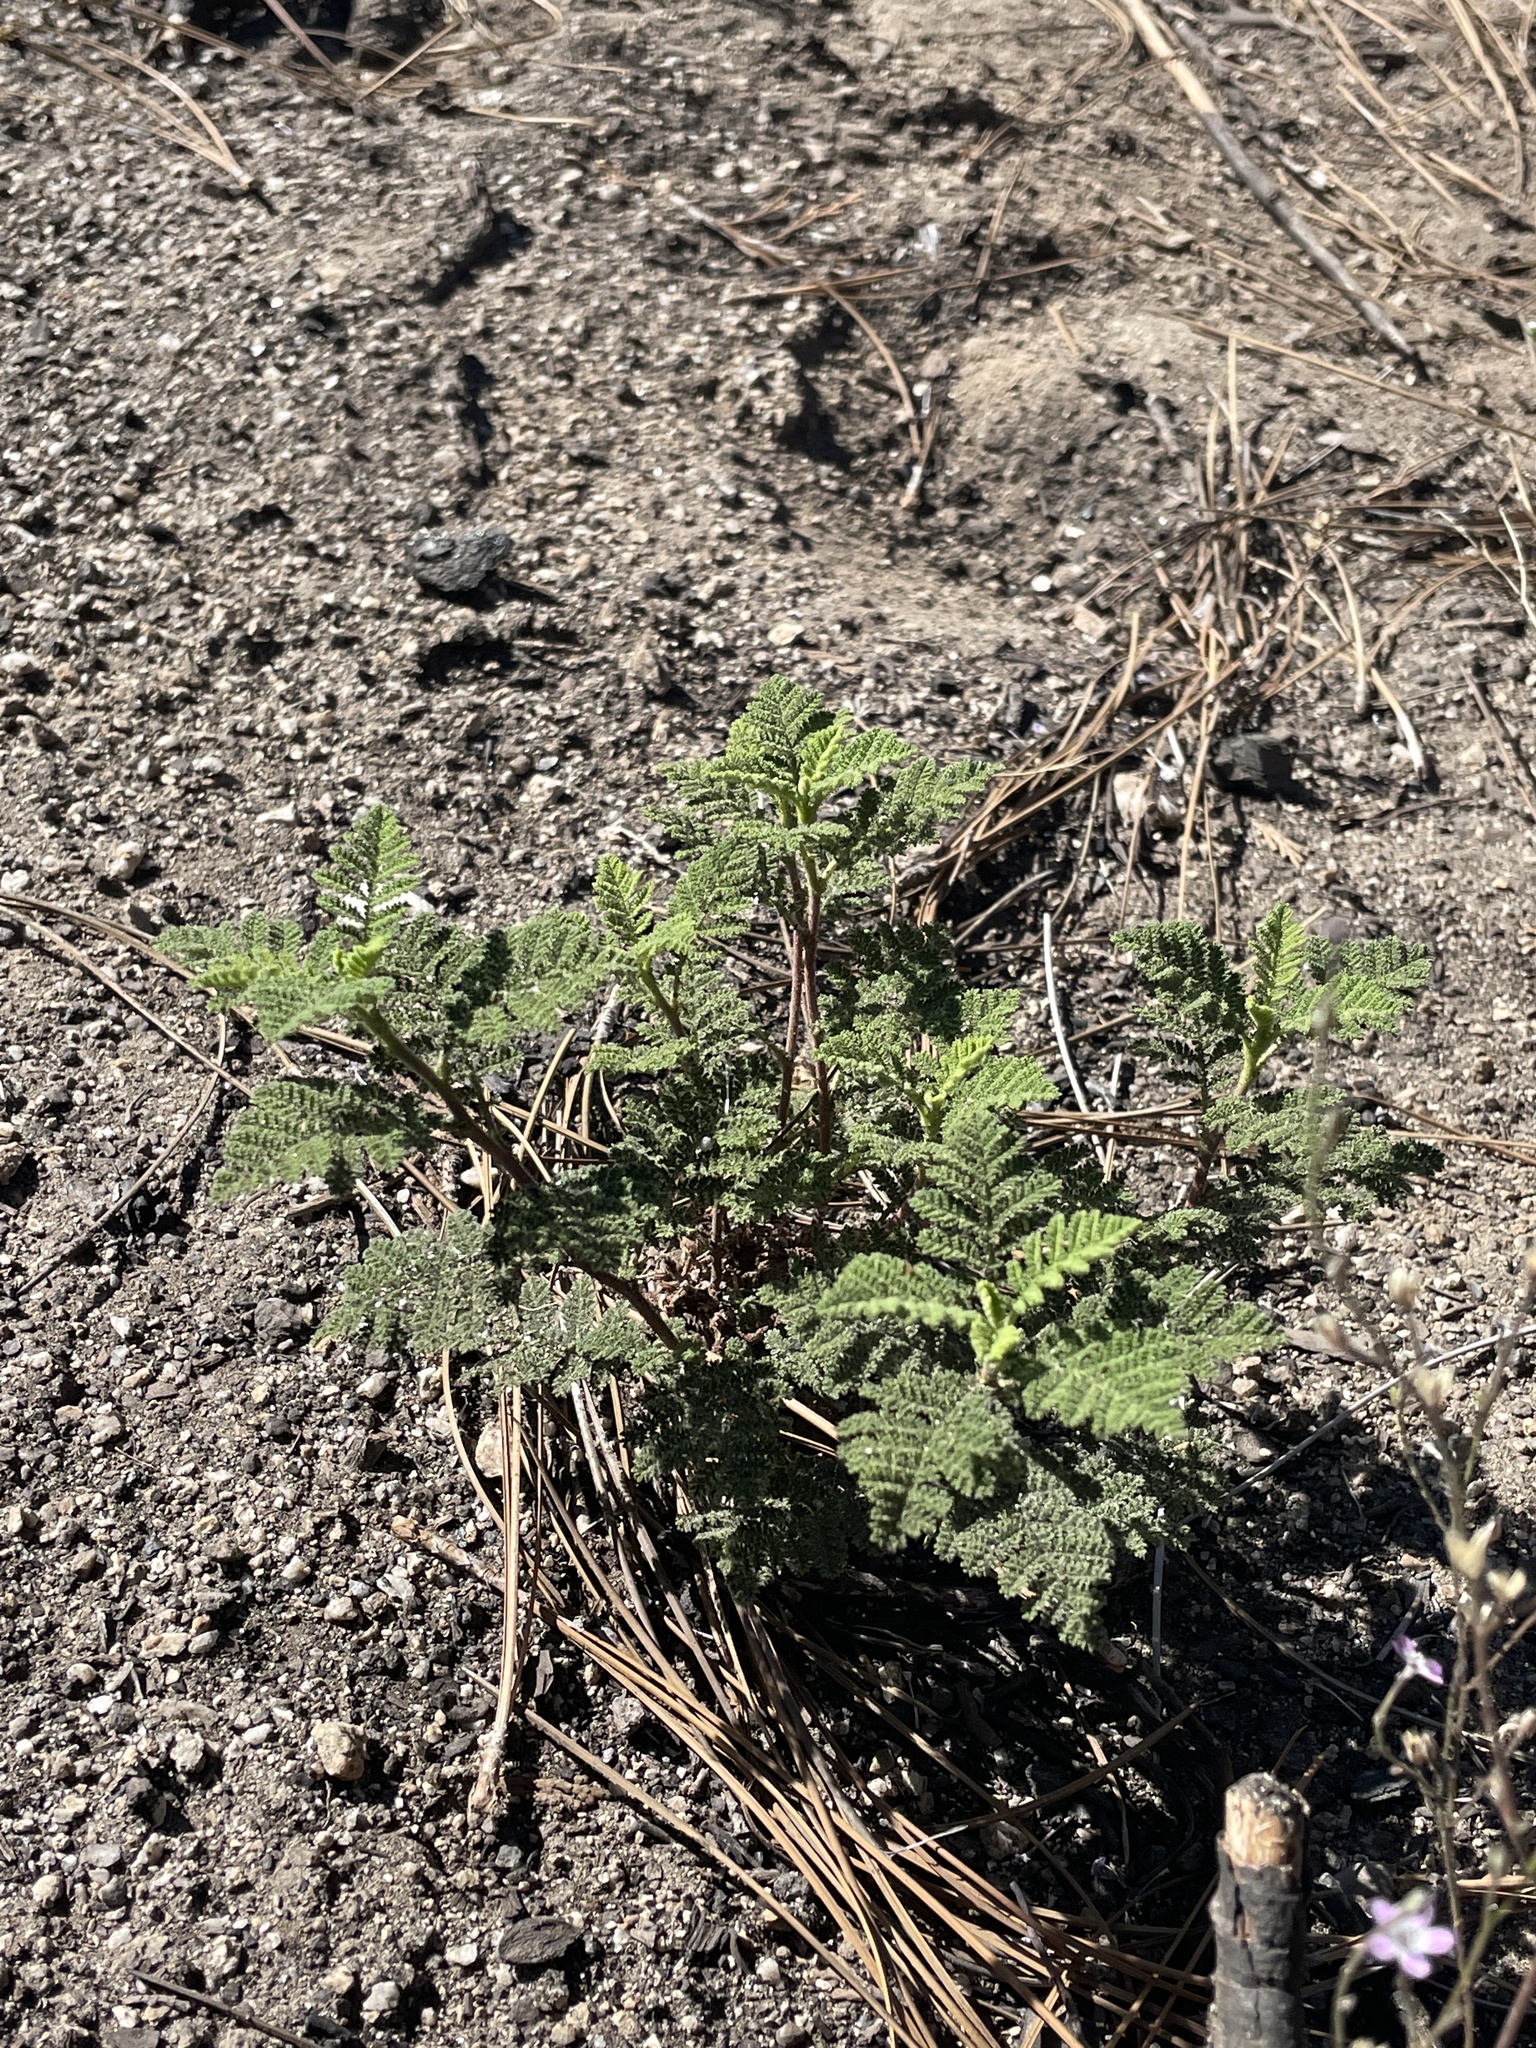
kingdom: Plantae
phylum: Tracheophyta
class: Magnoliopsida
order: Rosales
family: Rosaceae
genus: Chamaebatia
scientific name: Chamaebatia foliolosa
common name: Mountain misery
